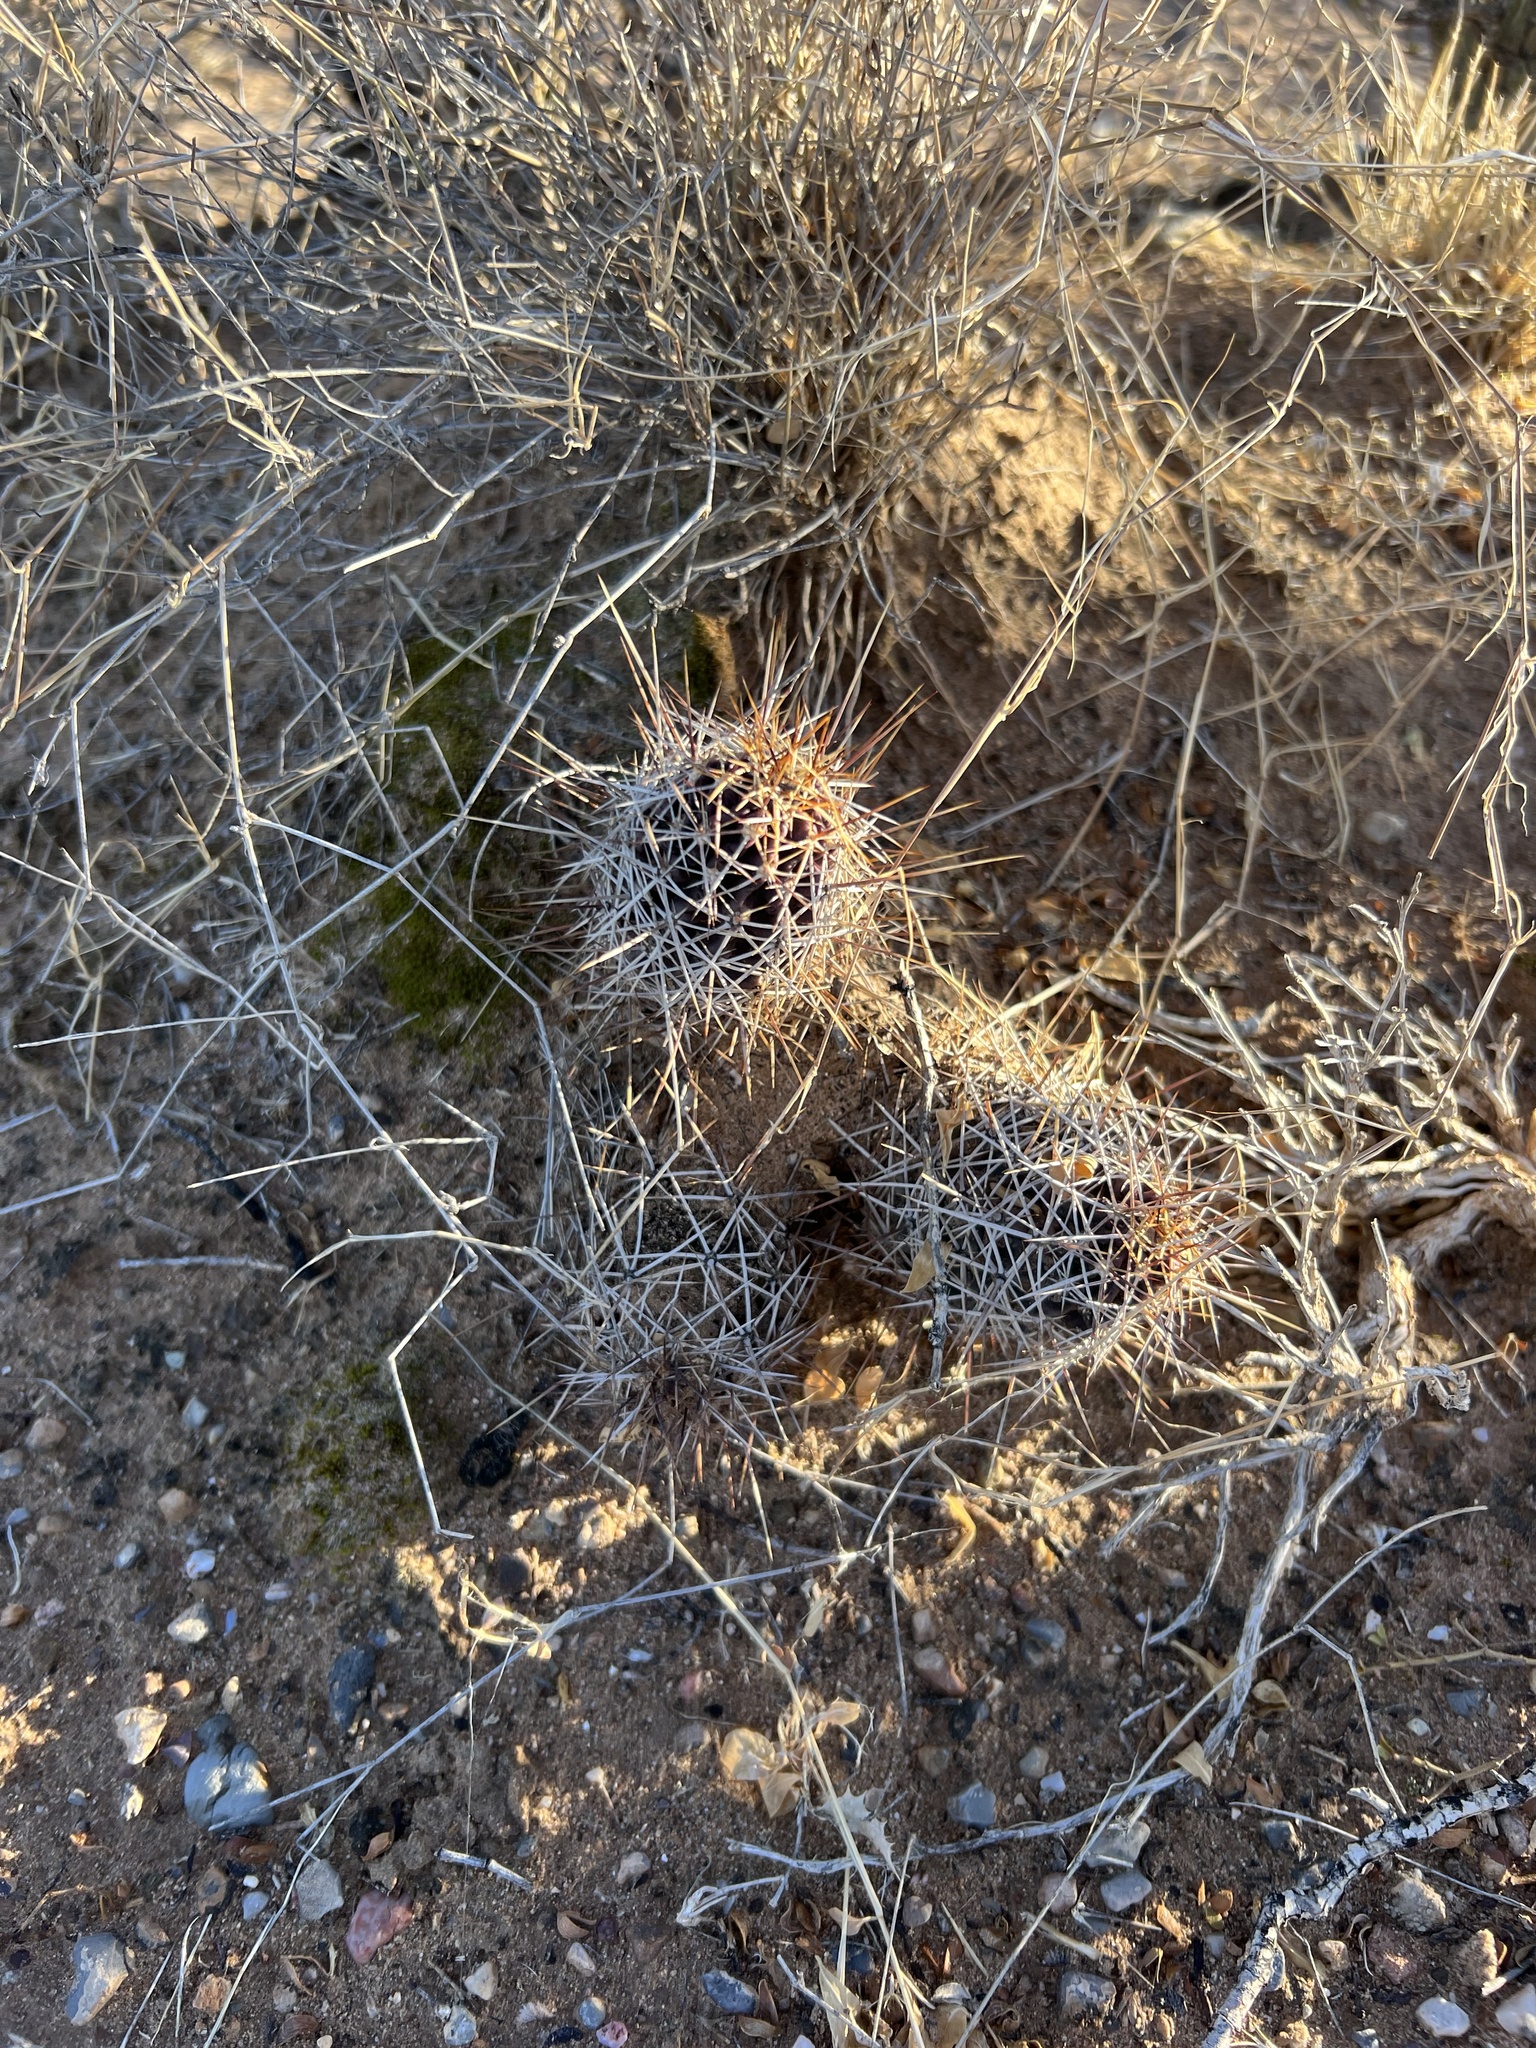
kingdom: Plantae
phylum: Tracheophyta
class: Magnoliopsida
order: Caryophyllales
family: Cactaceae
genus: Echinocereus
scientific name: Echinocereus fendleri
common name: Fendler's hedgehog cactus
